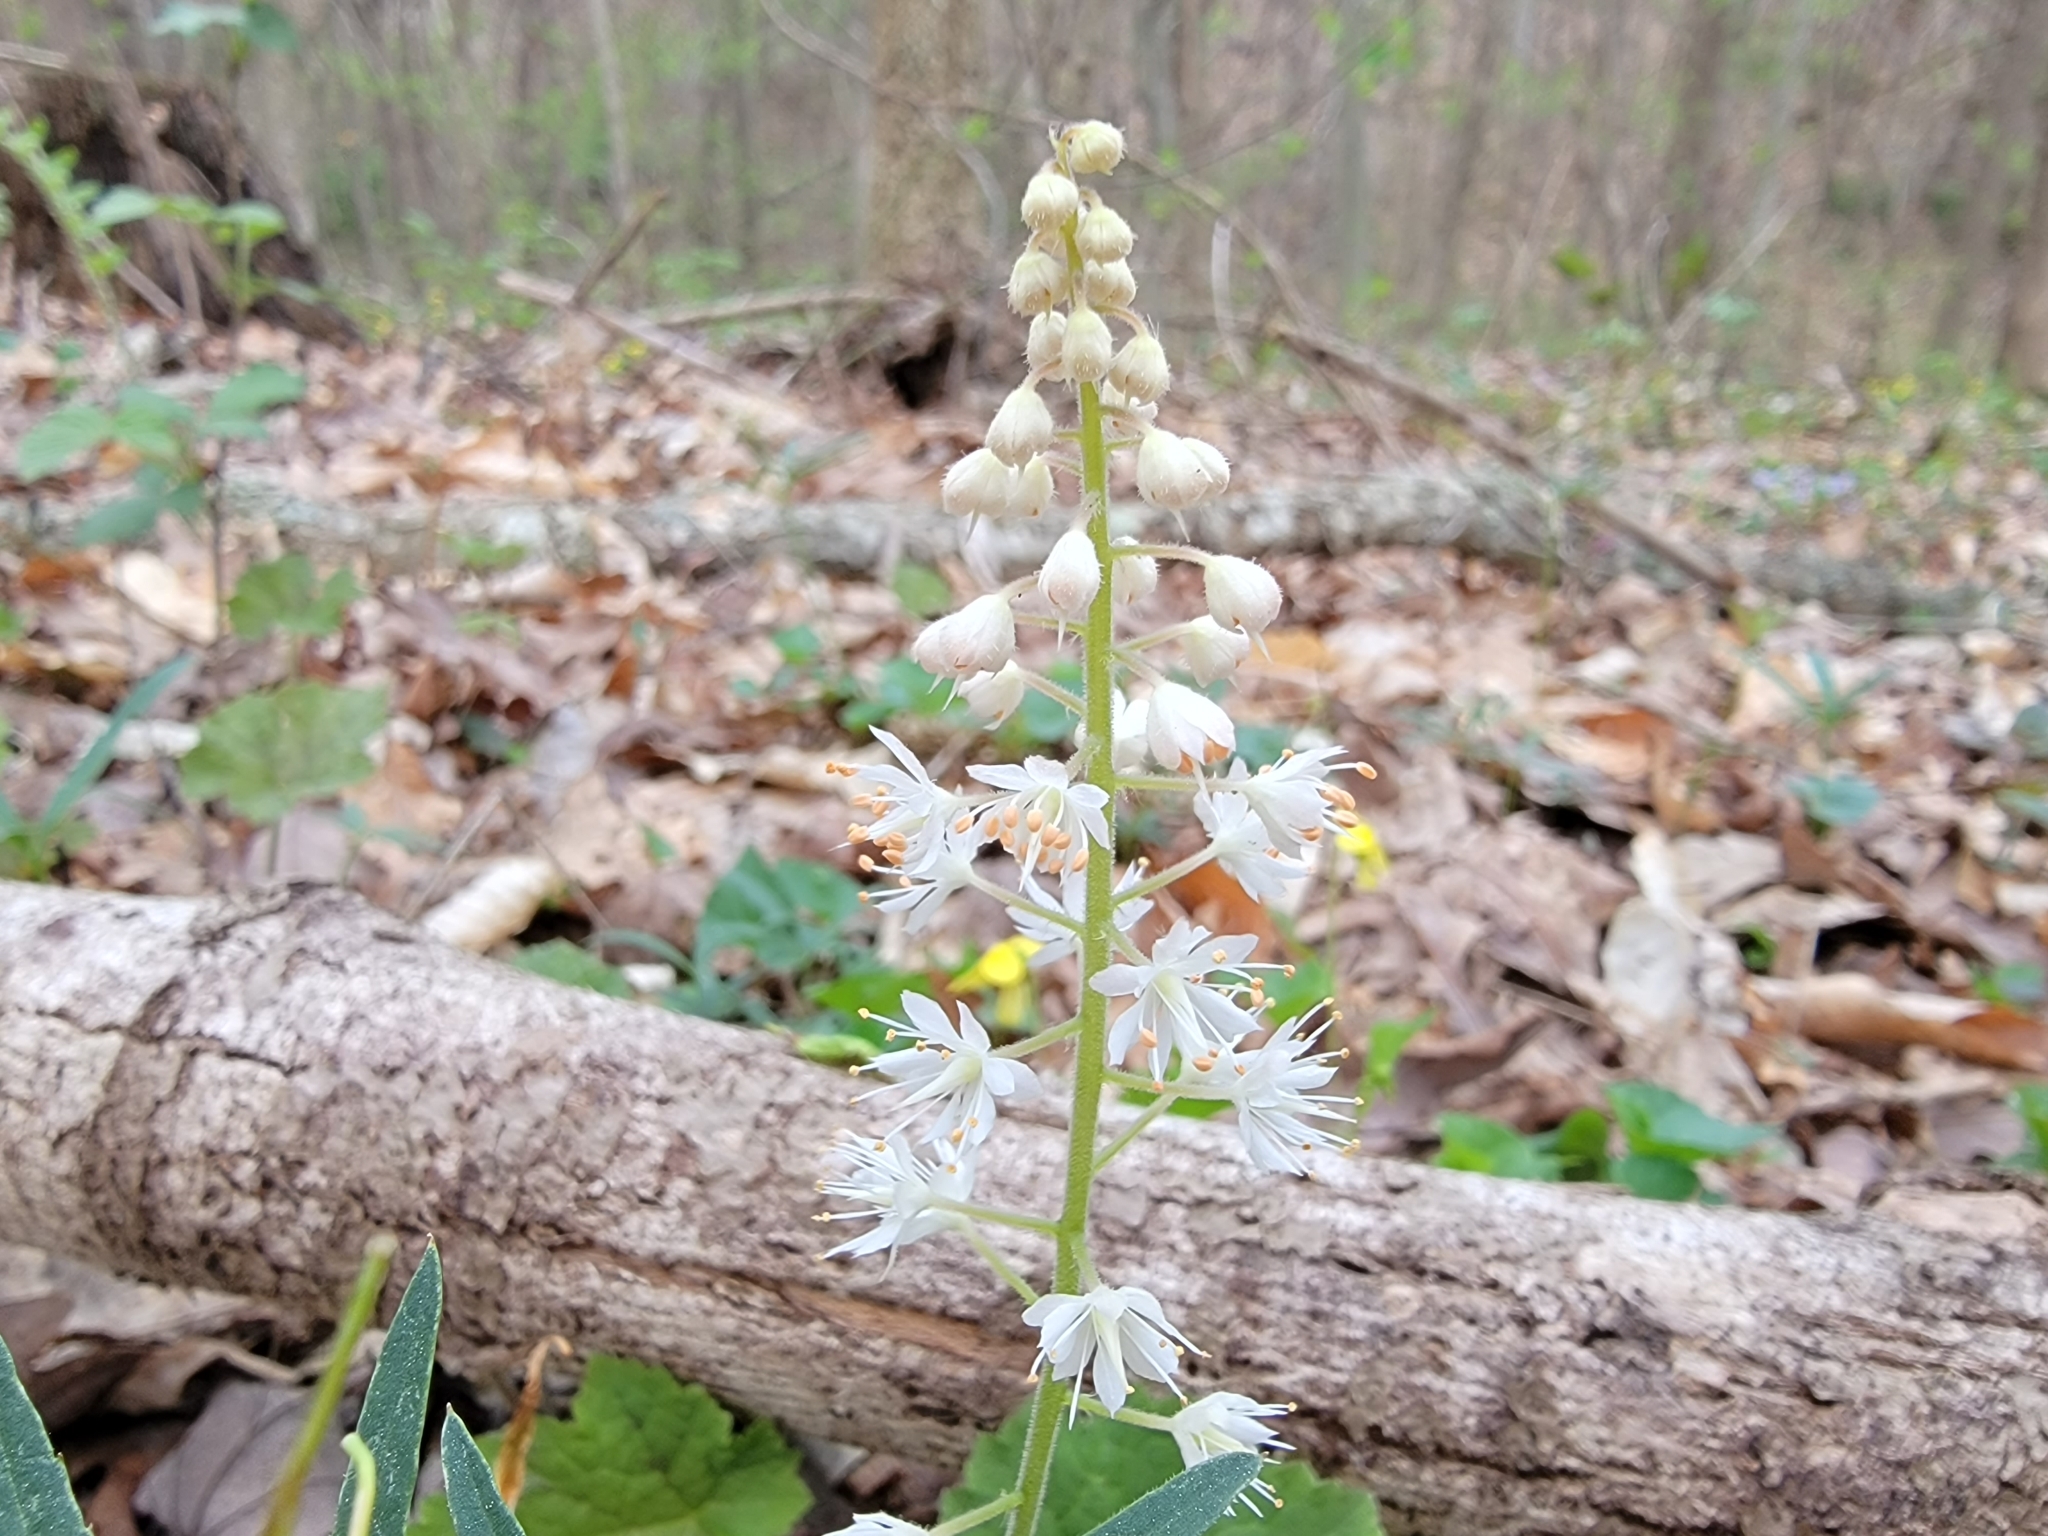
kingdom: Plantae
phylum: Tracheophyta
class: Magnoliopsida
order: Saxifragales
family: Saxifragaceae
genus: Tiarella
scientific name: Tiarella stolonifera
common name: Stoloniferous foamflower
